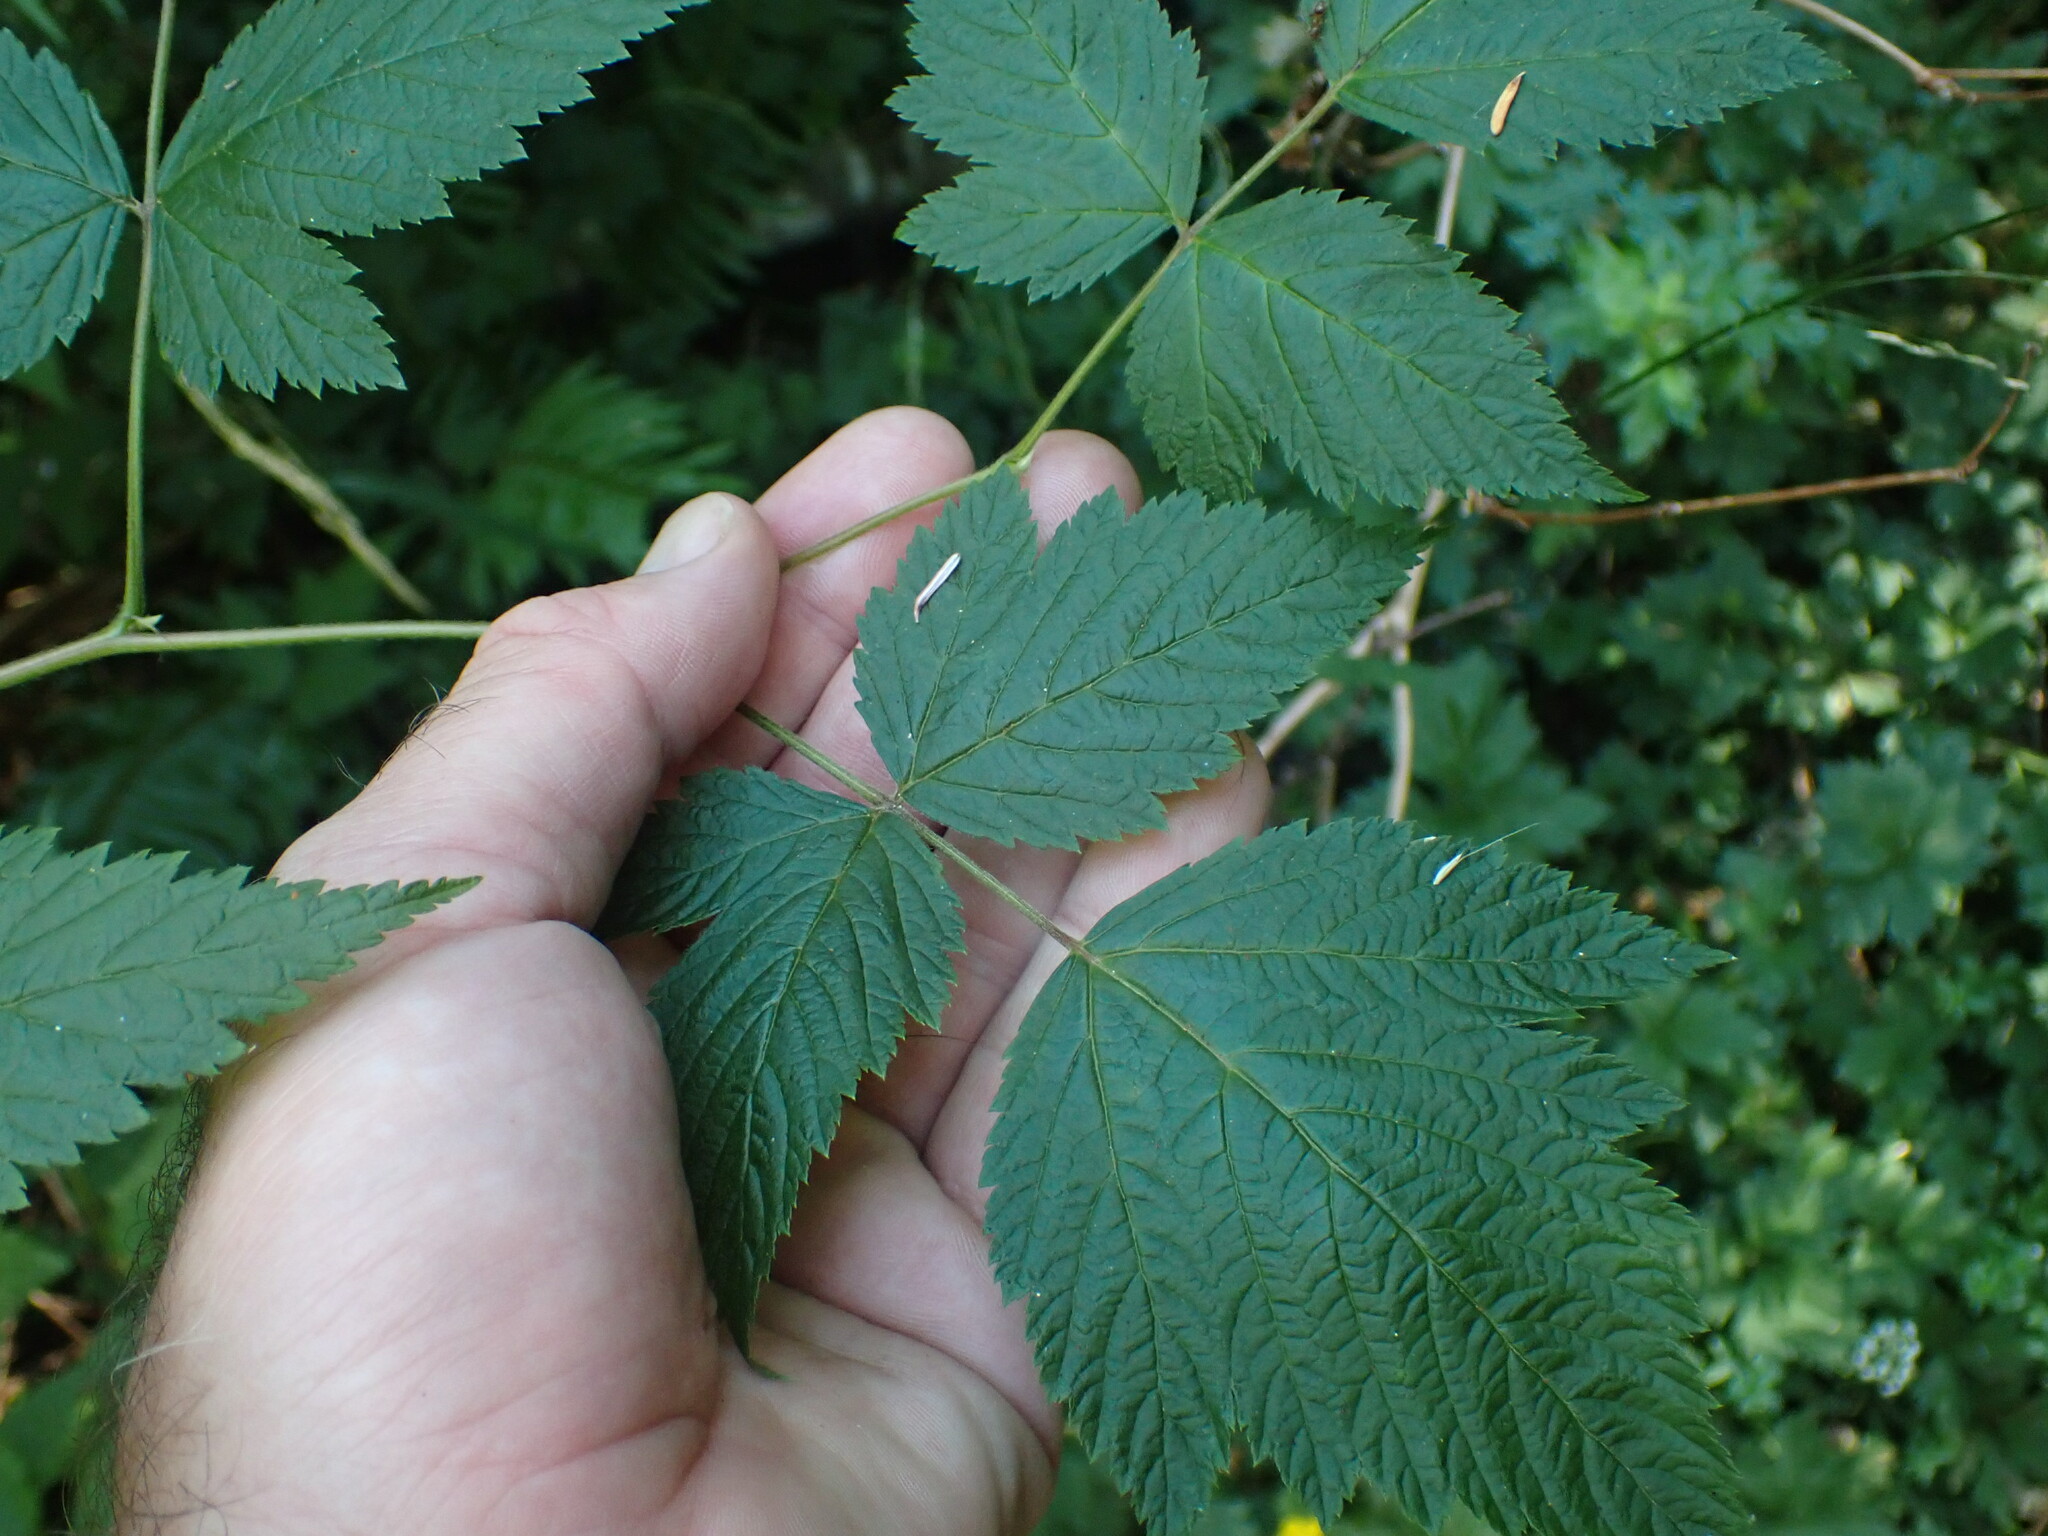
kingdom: Plantae
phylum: Tracheophyta
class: Magnoliopsida
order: Rosales
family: Rosaceae
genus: Rubus
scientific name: Rubus spectabilis
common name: Salmonberry
